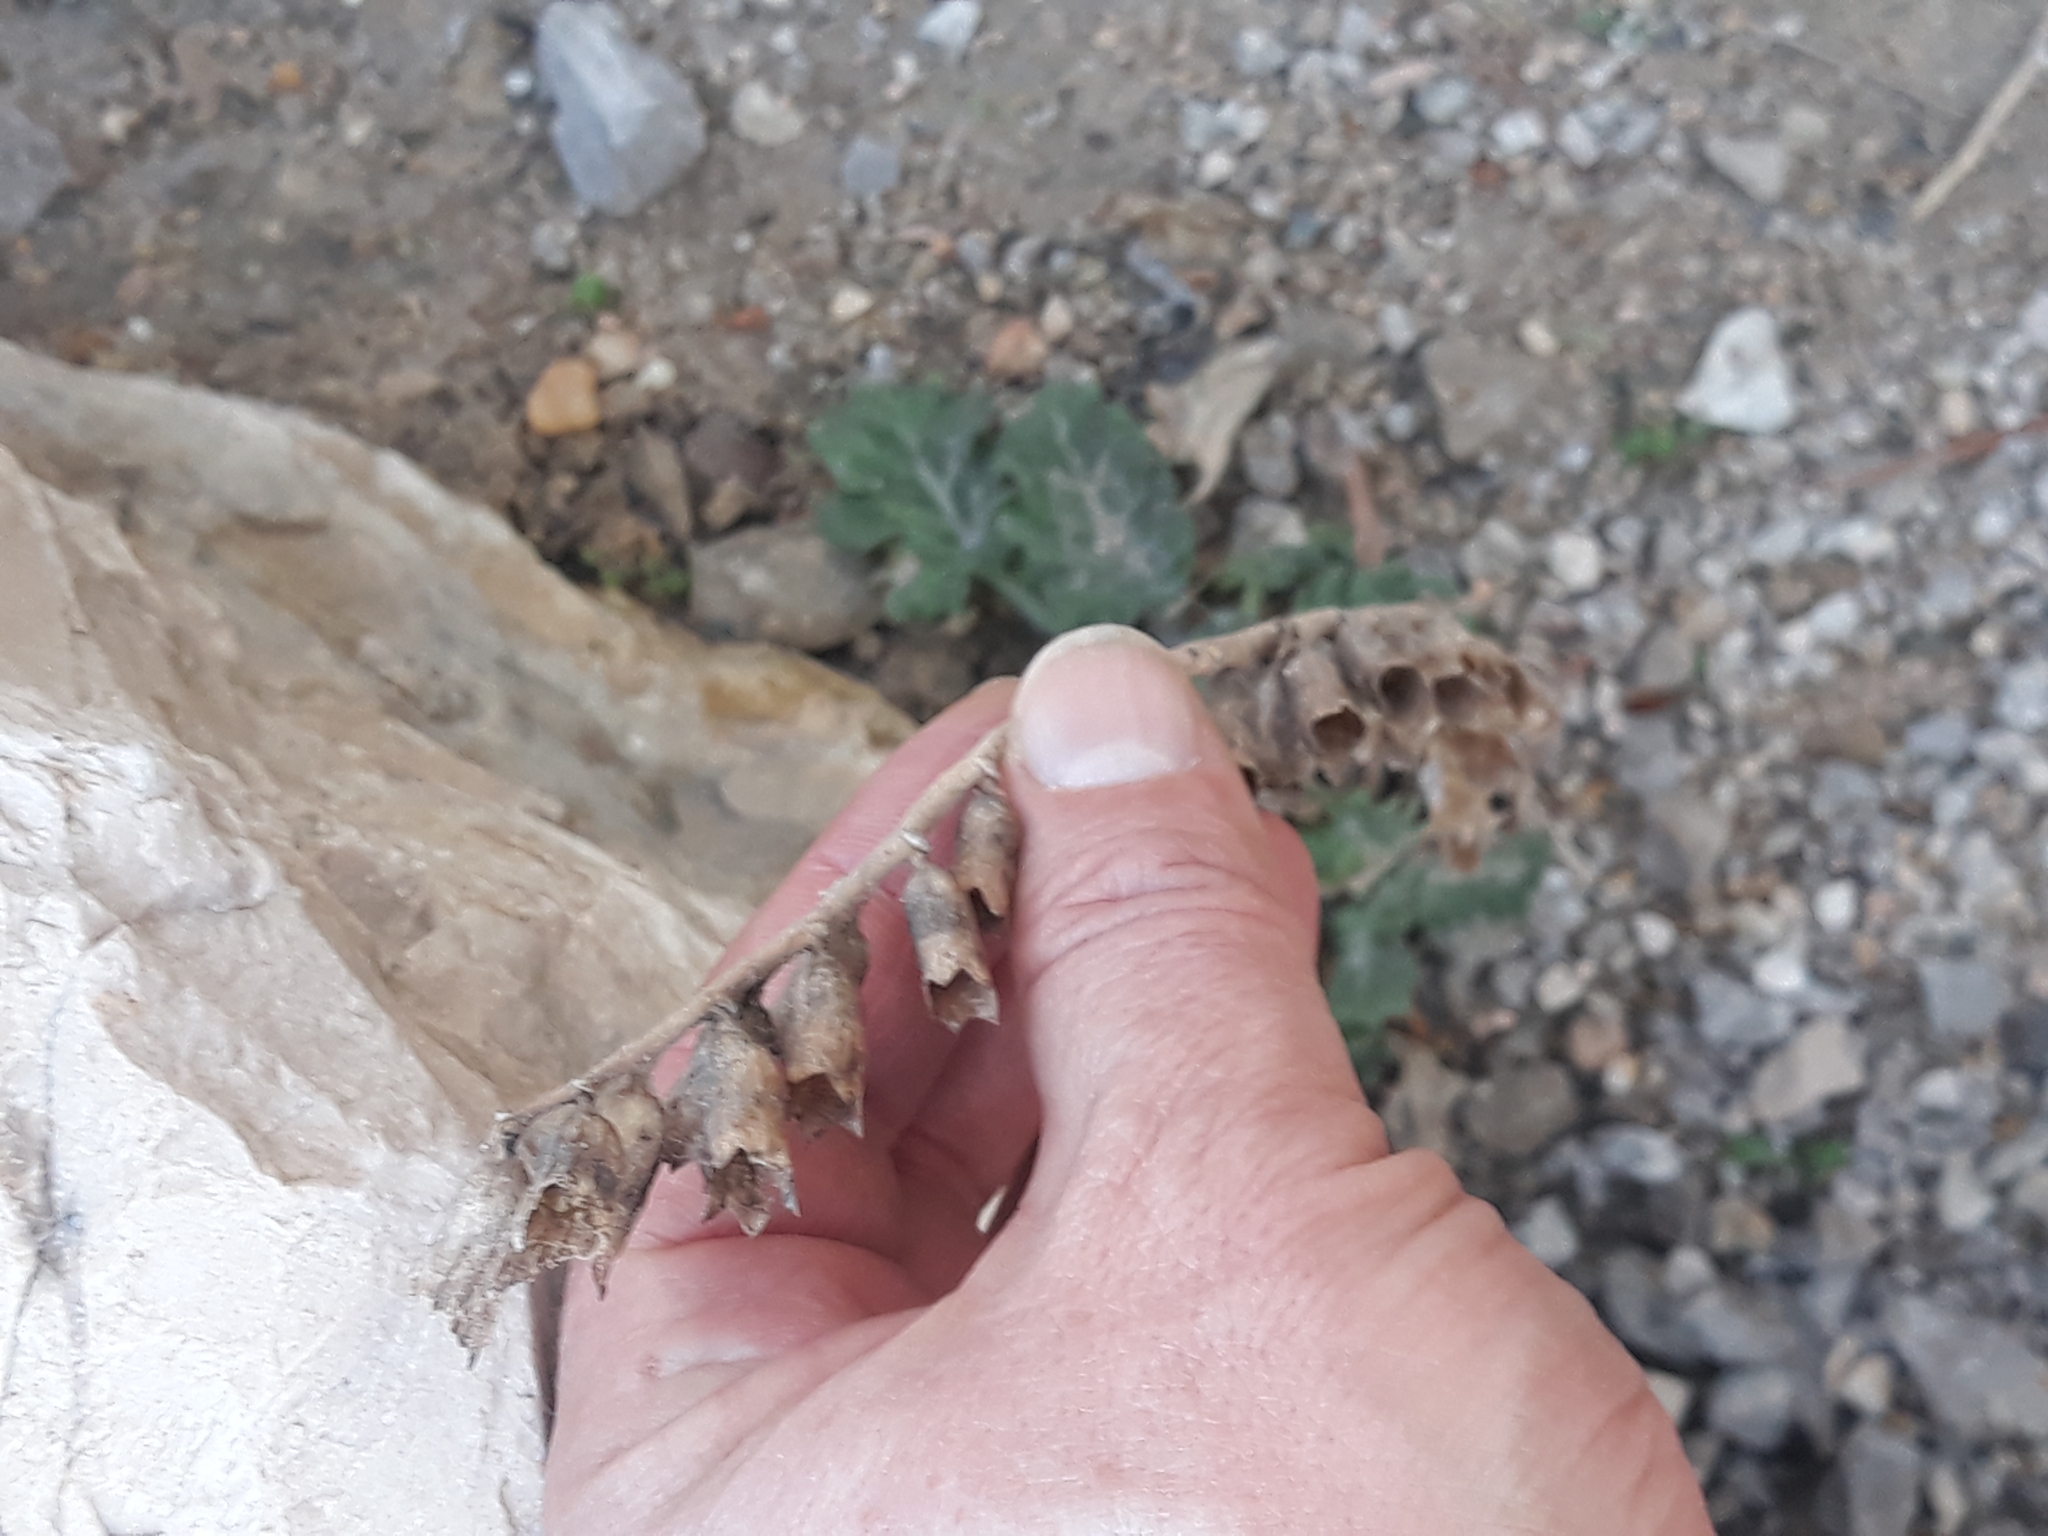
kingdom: Plantae
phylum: Tracheophyta
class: Magnoliopsida
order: Solanales
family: Solanaceae
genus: Hyoscyamus
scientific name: Hyoscyamus albus
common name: White henbane
